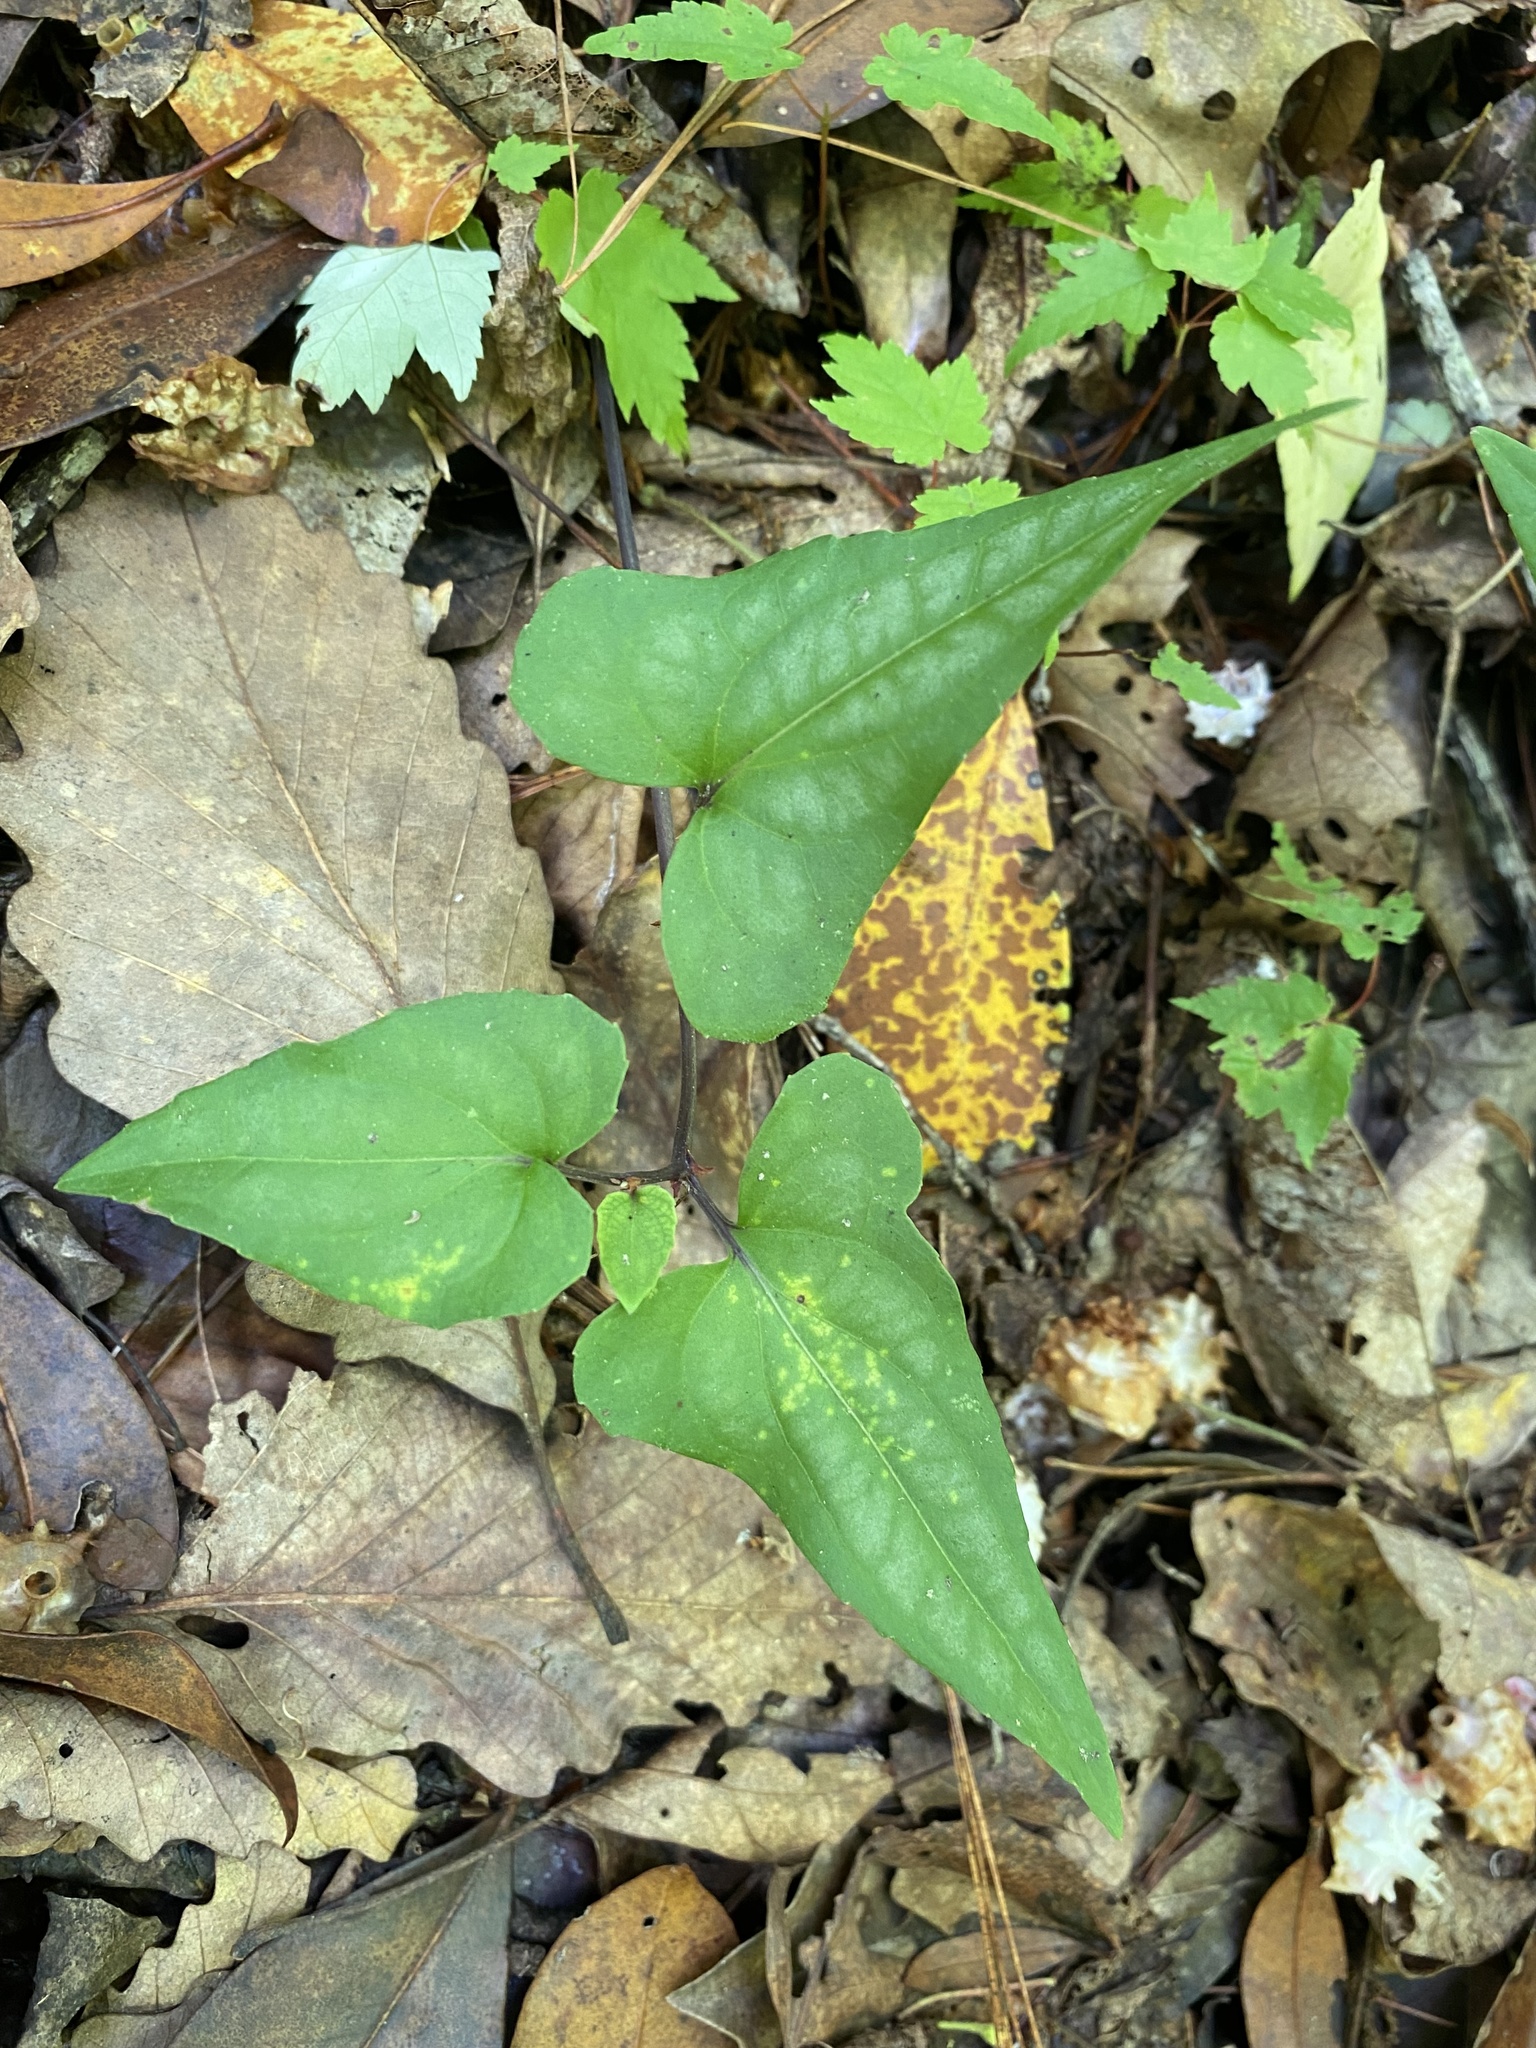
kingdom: Plantae
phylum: Tracheophyta
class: Magnoliopsida
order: Malpighiales
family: Violaceae
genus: Viola
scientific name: Viola hastata
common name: Spear-leaf violet
